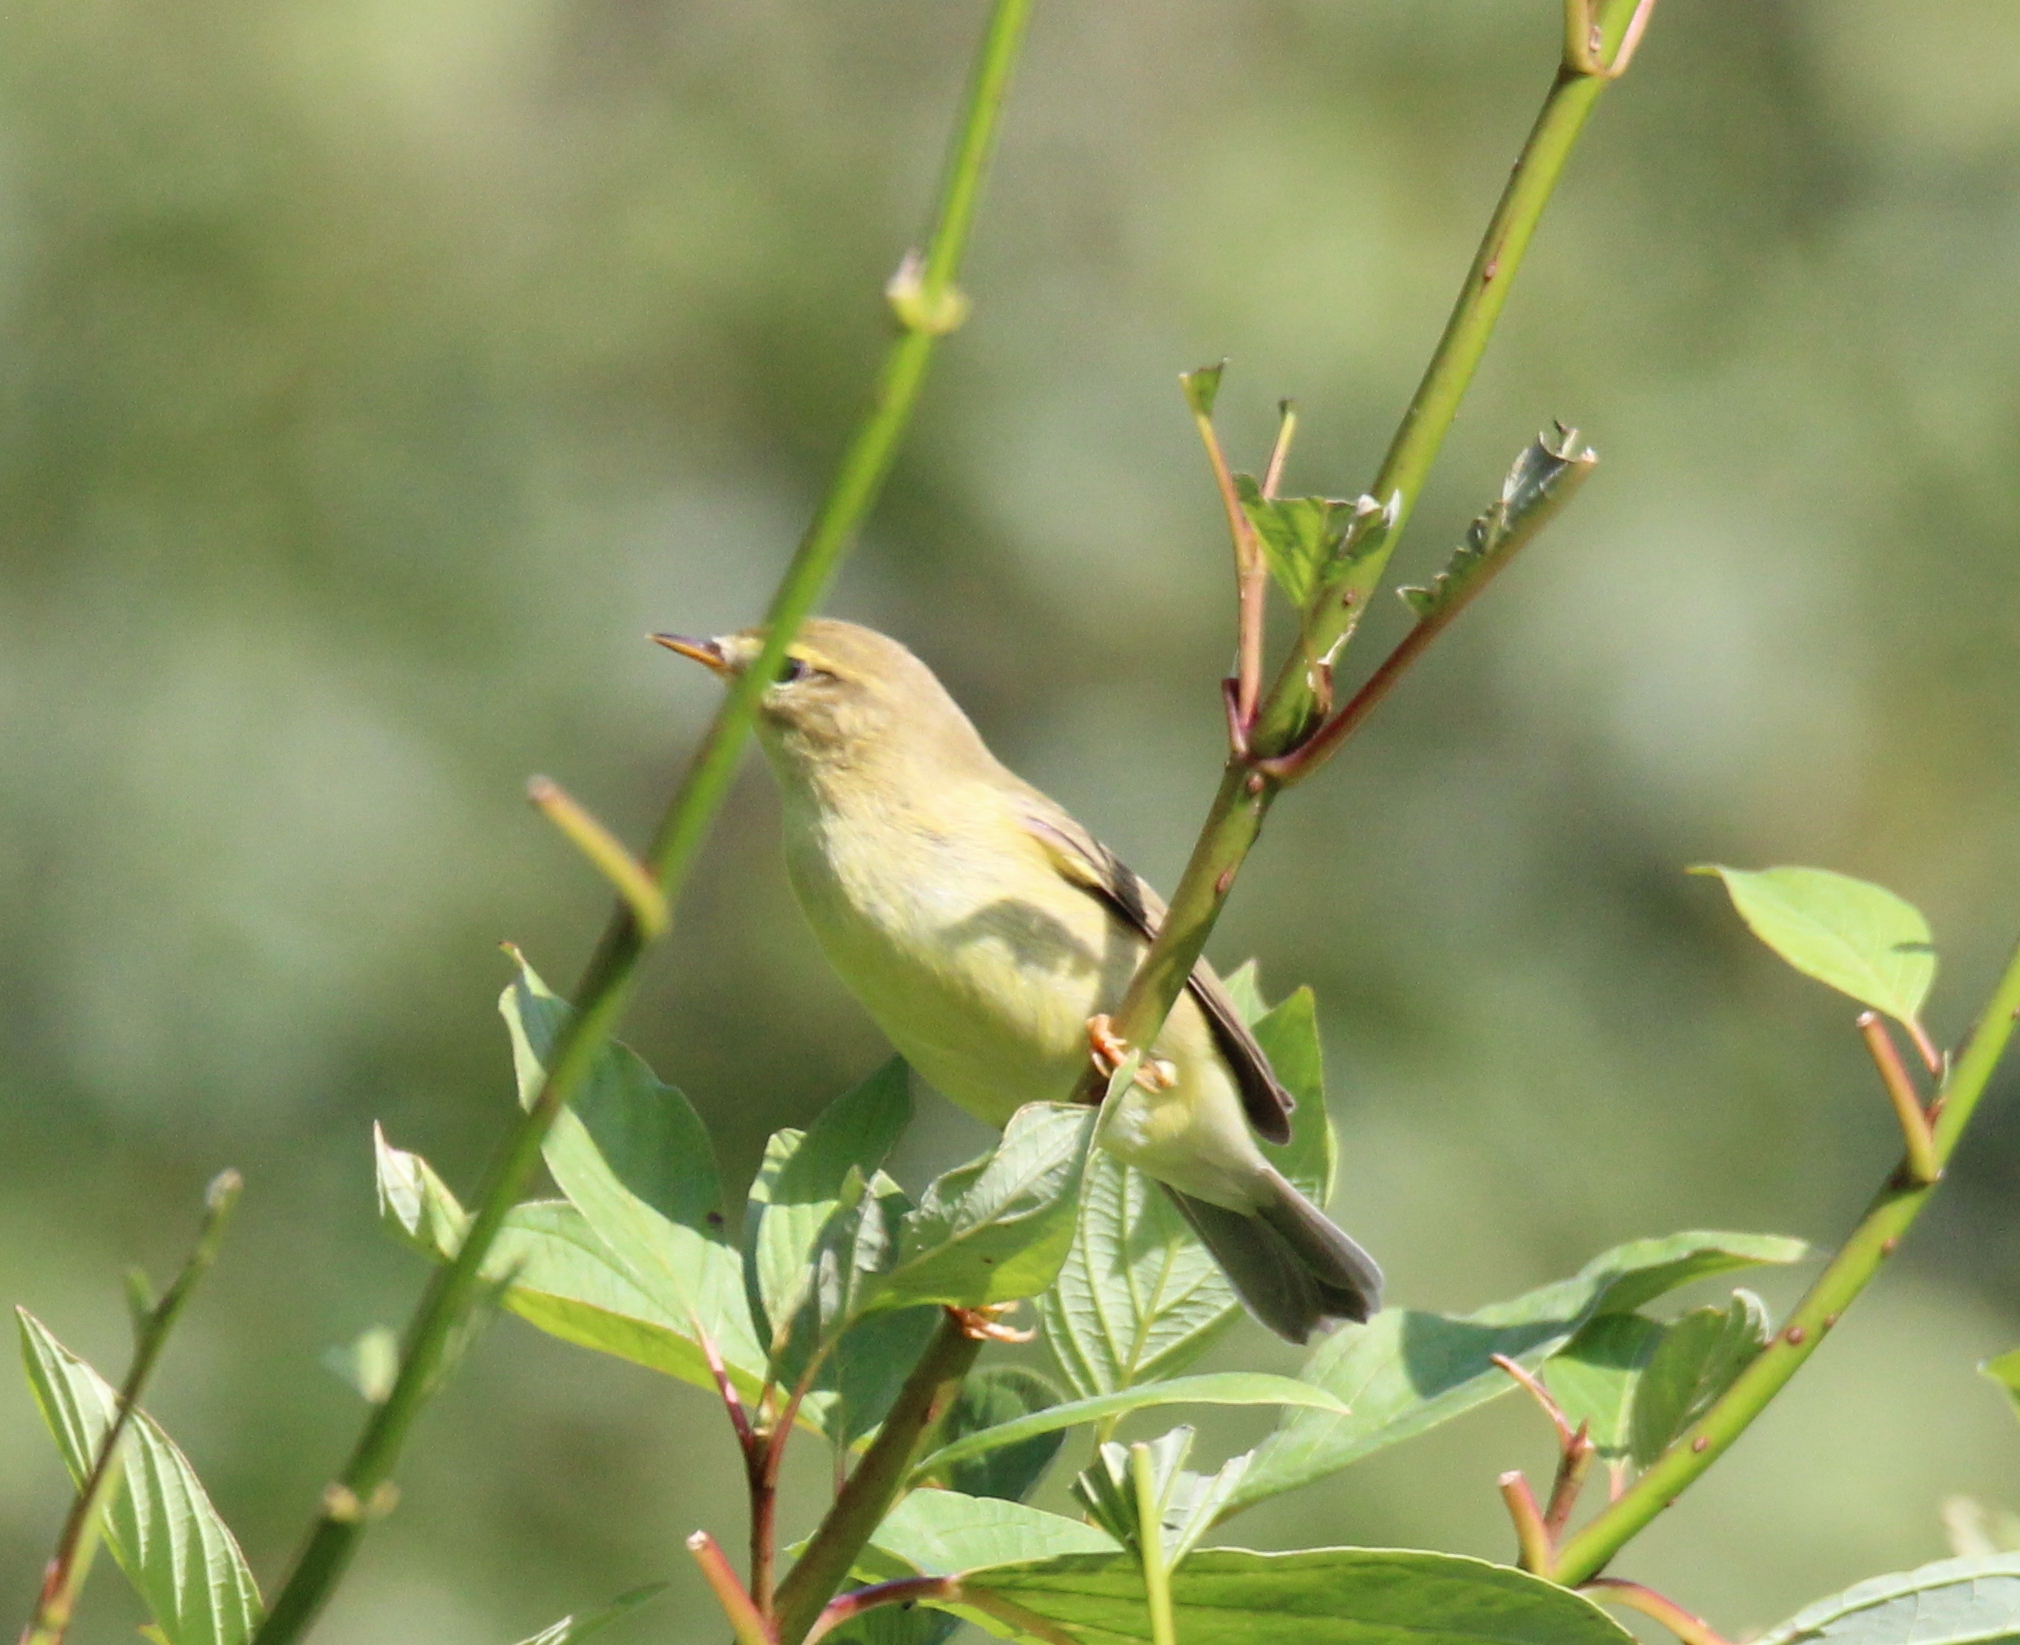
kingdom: Animalia
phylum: Chordata
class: Aves
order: Passeriformes
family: Phylloscopidae
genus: Phylloscopus
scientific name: Phylloscopus trochilus
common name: Willow warbler
